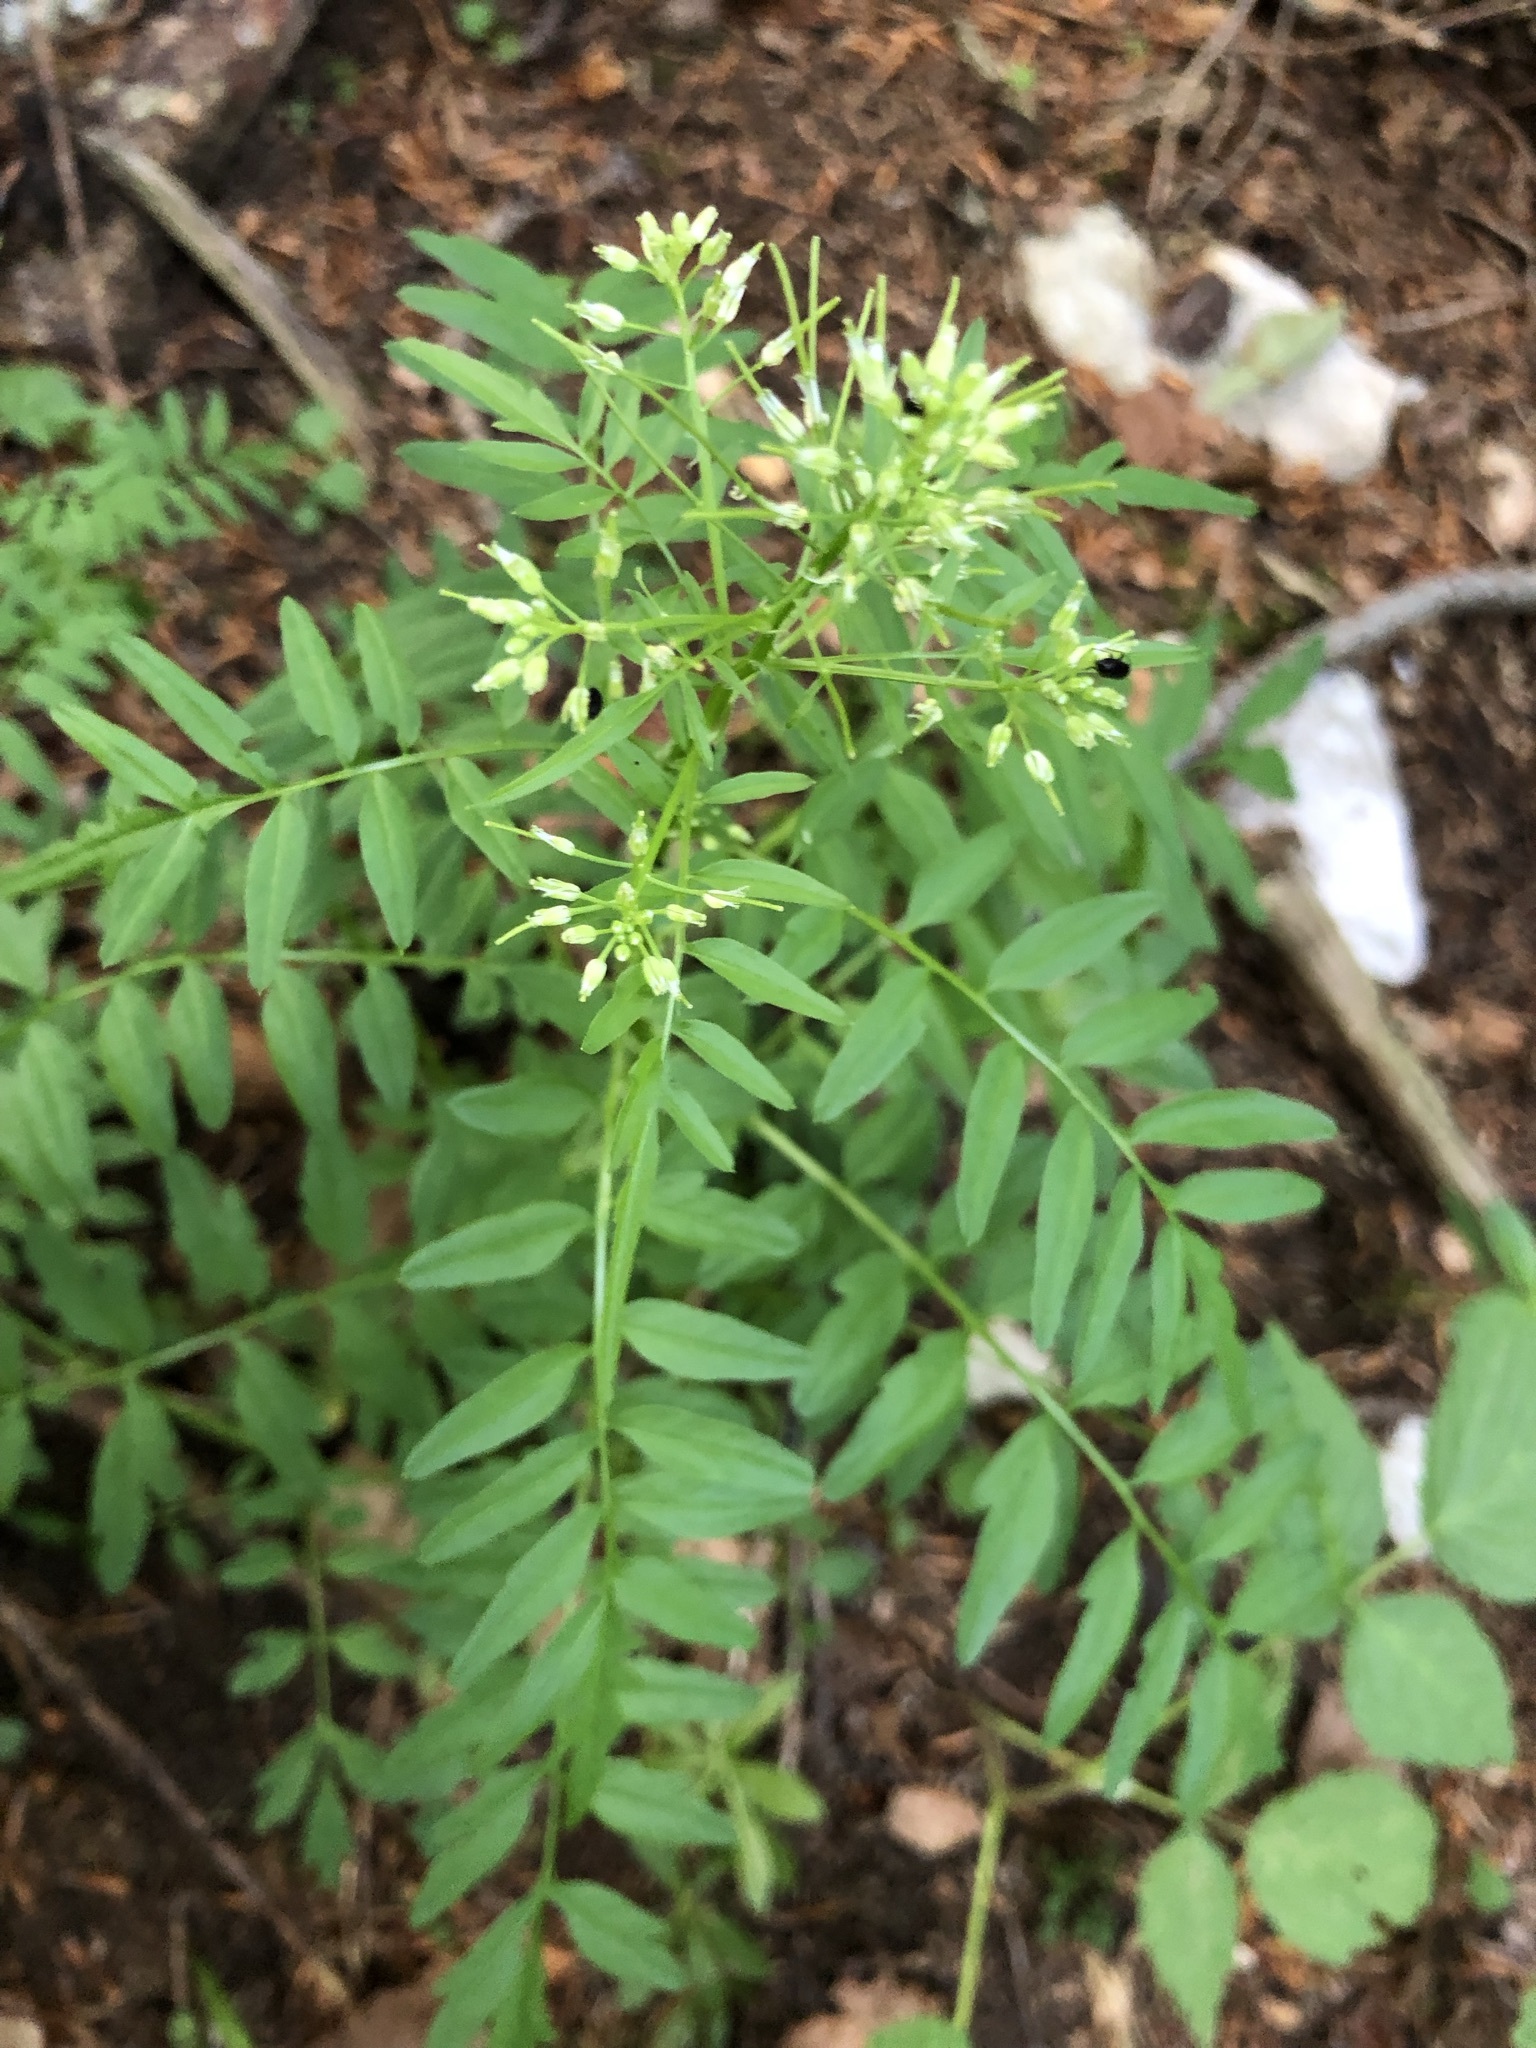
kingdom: Plantae
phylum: Tracheophyta
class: Magnoliopsida
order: Brassicales
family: Brassicaceae
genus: Cardamine
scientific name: Cardamine impatiens
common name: Narrow-leaved bitter-cress
